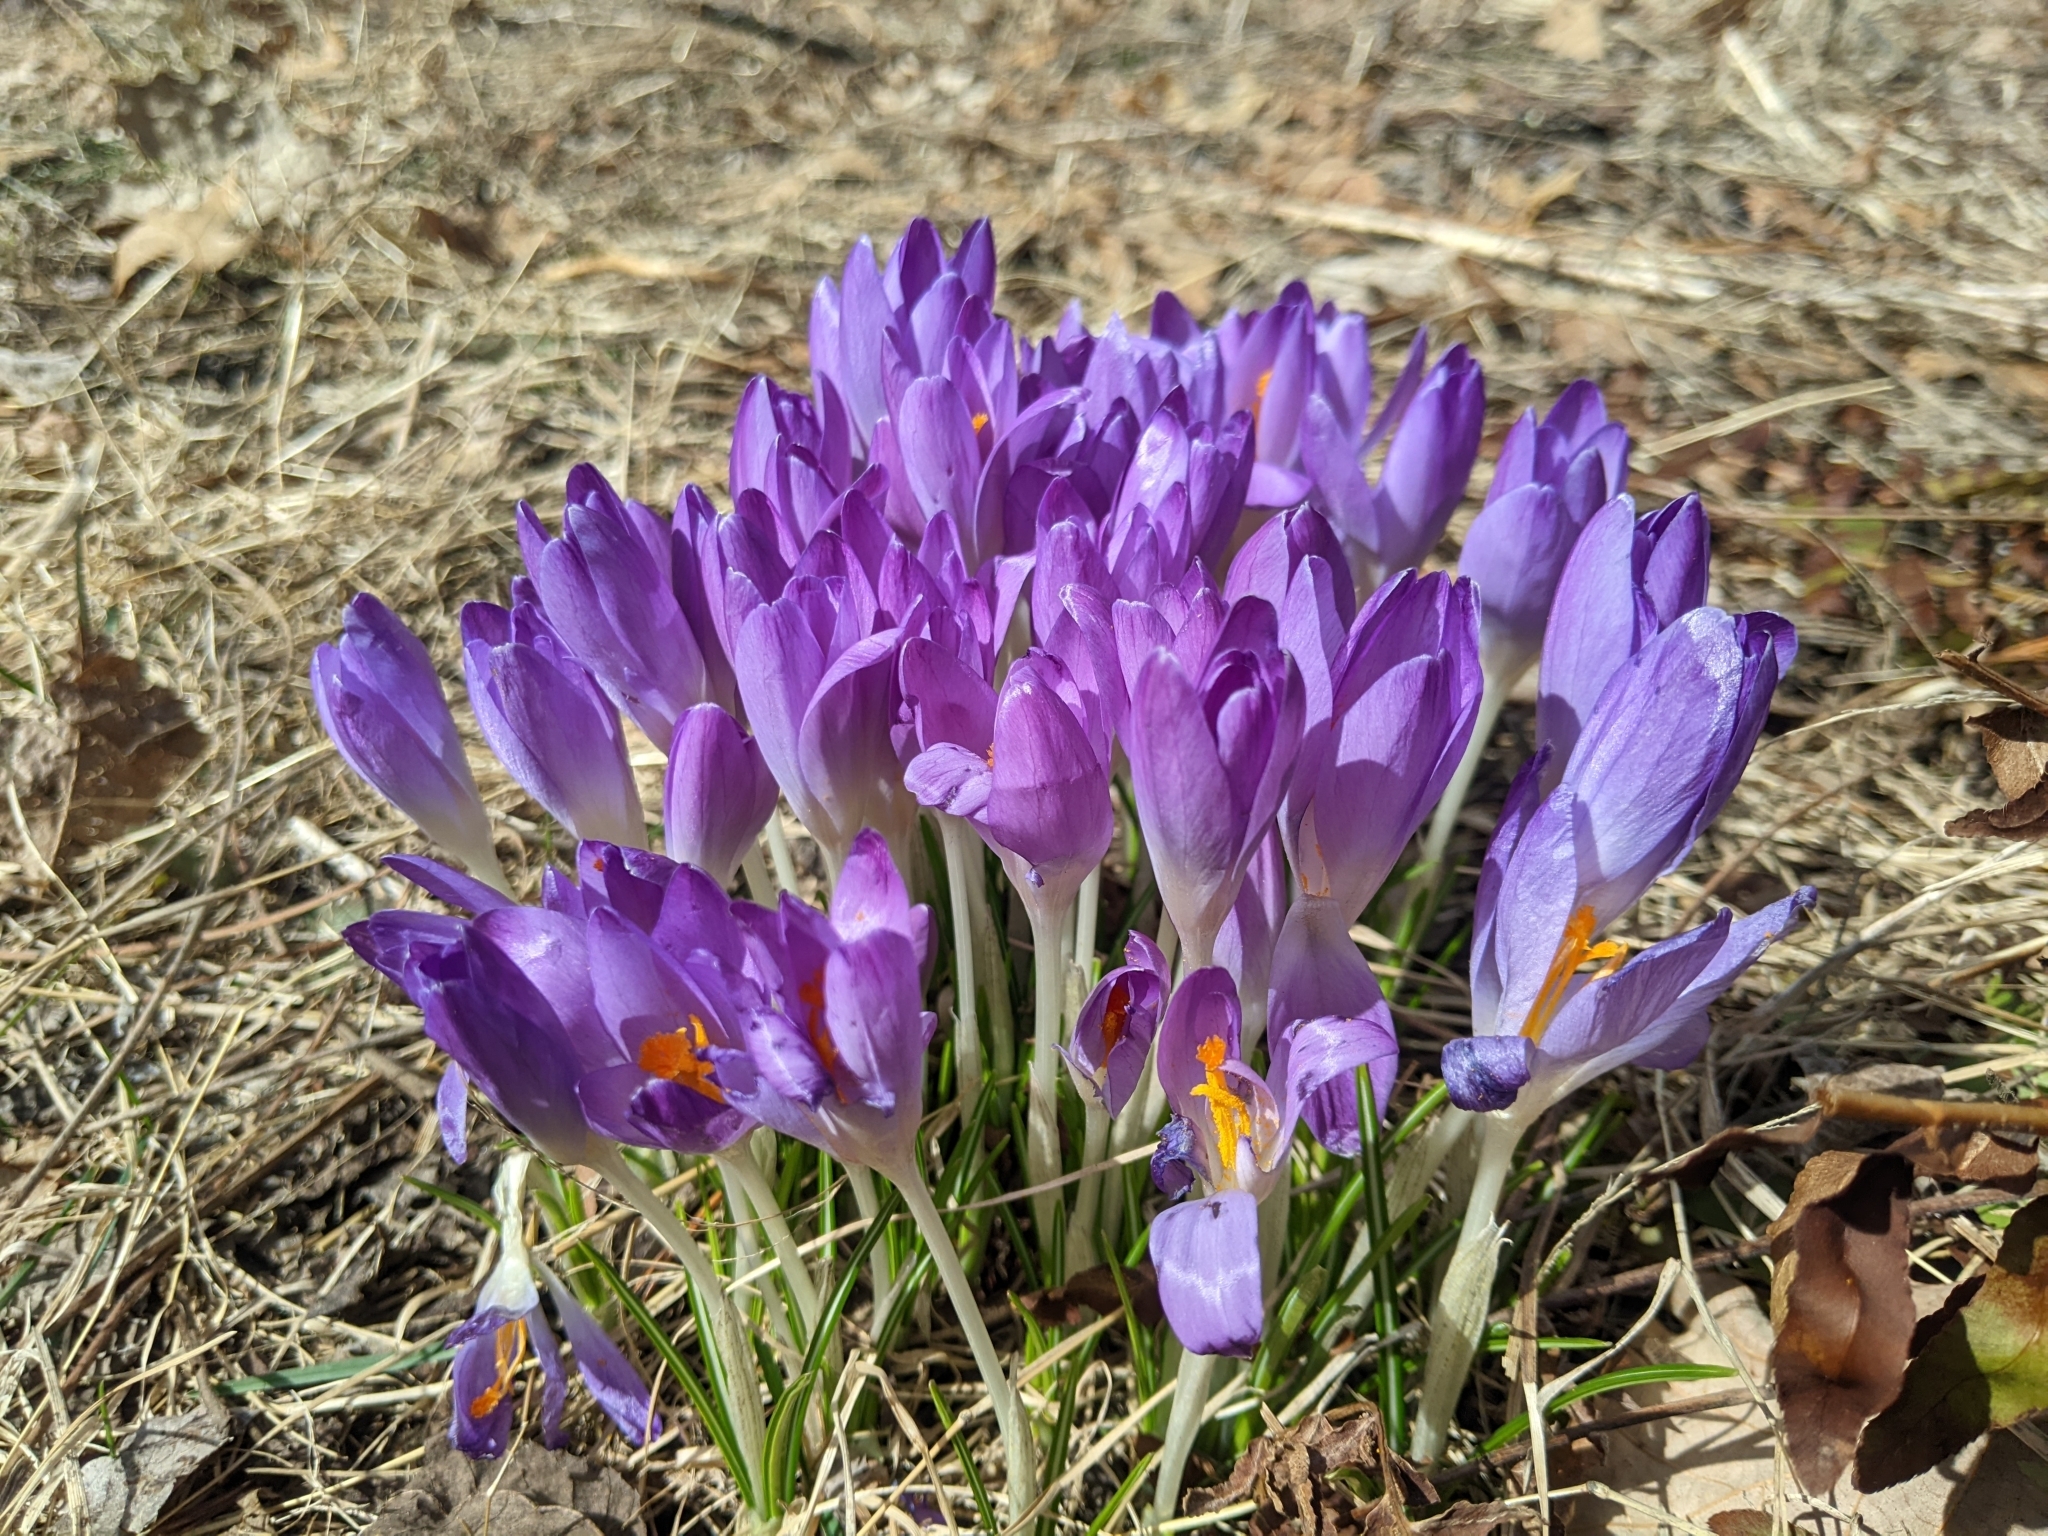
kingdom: Plantae
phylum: Tracheophyta
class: Liliopsida
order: Asparagales
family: Iridaceae
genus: Crocus
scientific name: Crocus tommasinianus
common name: Early crocus
